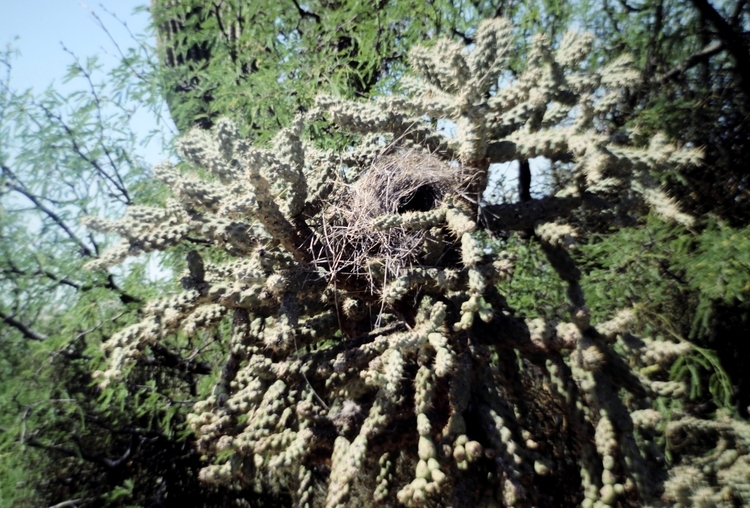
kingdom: Plantae
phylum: Tracheophyta
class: Magnoliopsida
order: Caryophyllales
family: Cactaceae
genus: Cylindropuntia
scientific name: Cylindropuntia fulgida
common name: Jumping cholla
